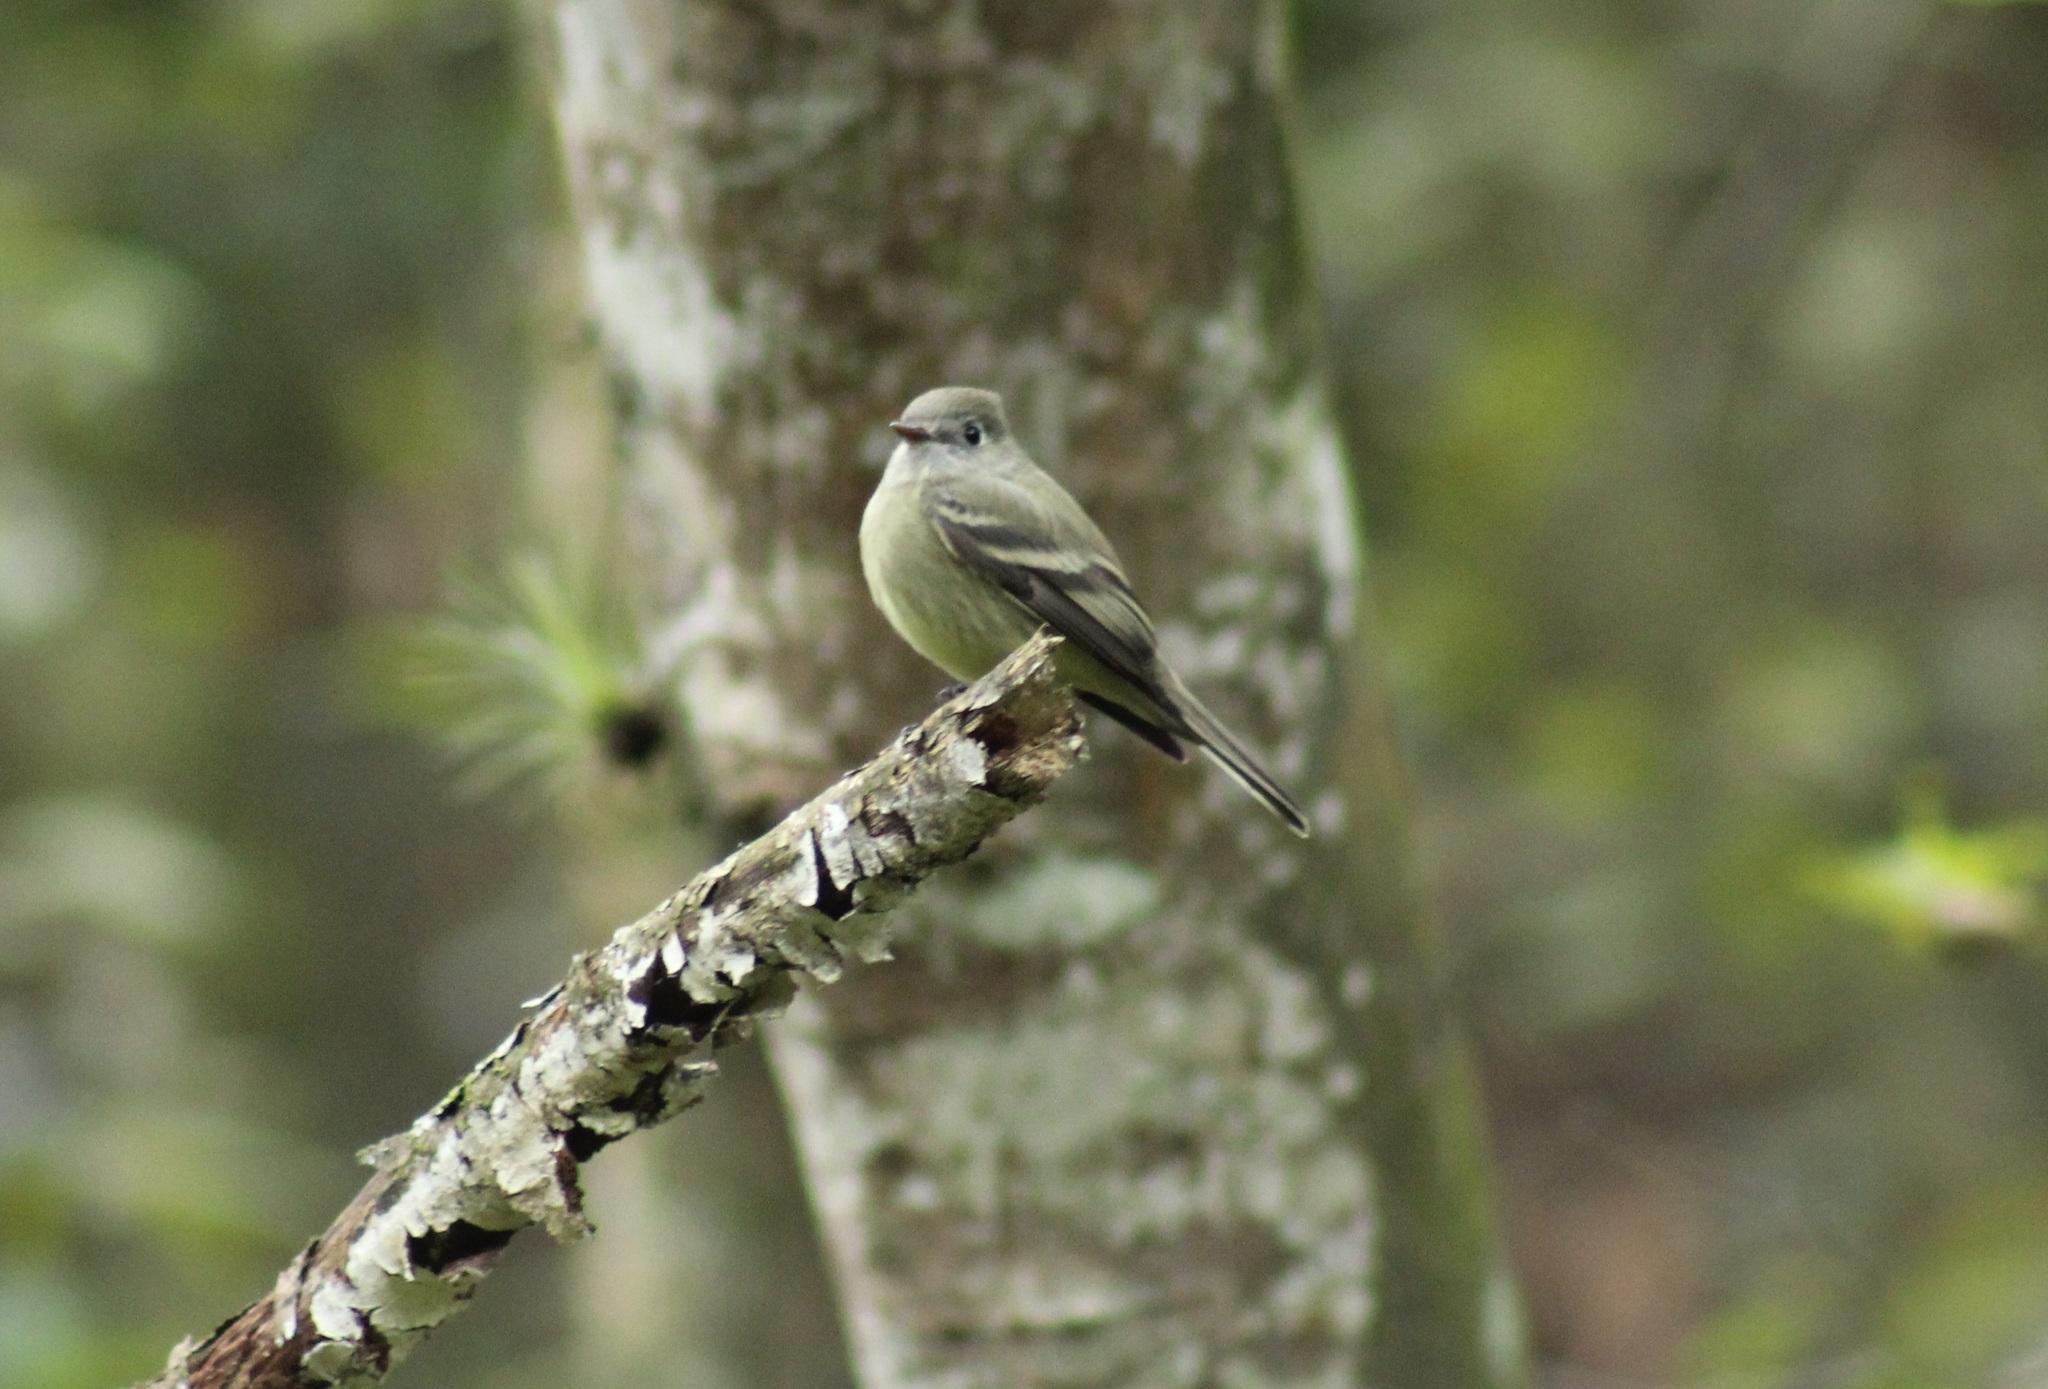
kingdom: Animalia
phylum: Chordata
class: Aves
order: Passeriformes
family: Tyrannidae
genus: Empidonax
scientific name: Empidonax hammondii
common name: Hammond's flycatcher
